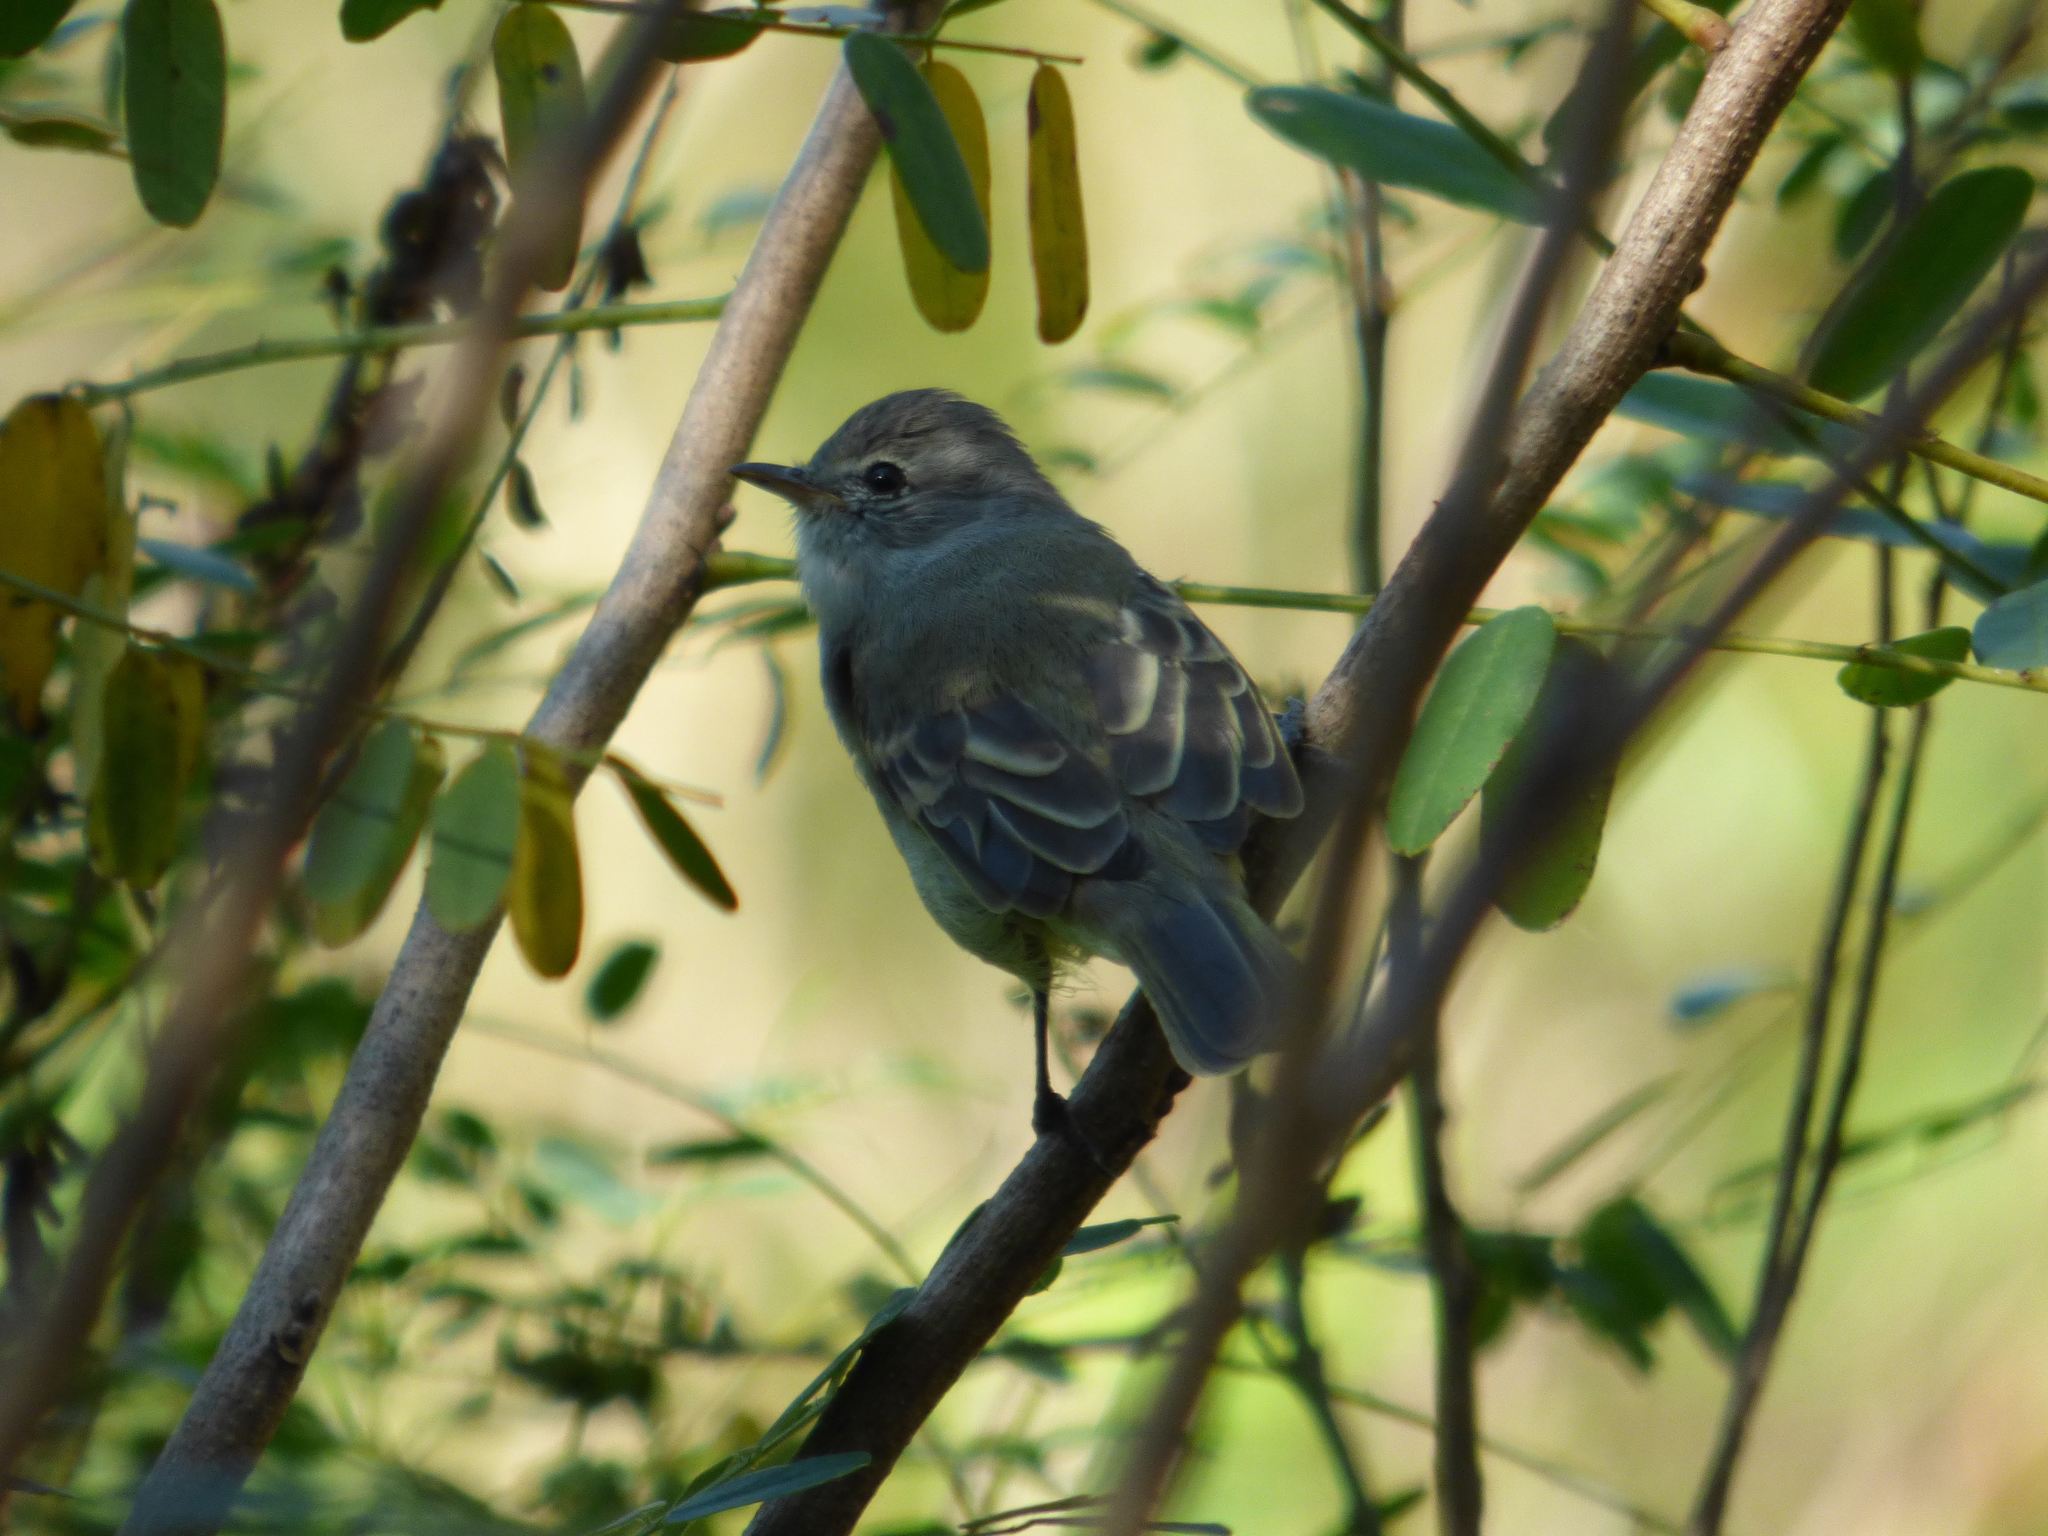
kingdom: Animalia
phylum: Chordata
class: Aves
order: Passeriformes
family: Tyrannidae
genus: Camptostoma
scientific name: Camptostoma obsoletum
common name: Southern beardless-tyrannulet
